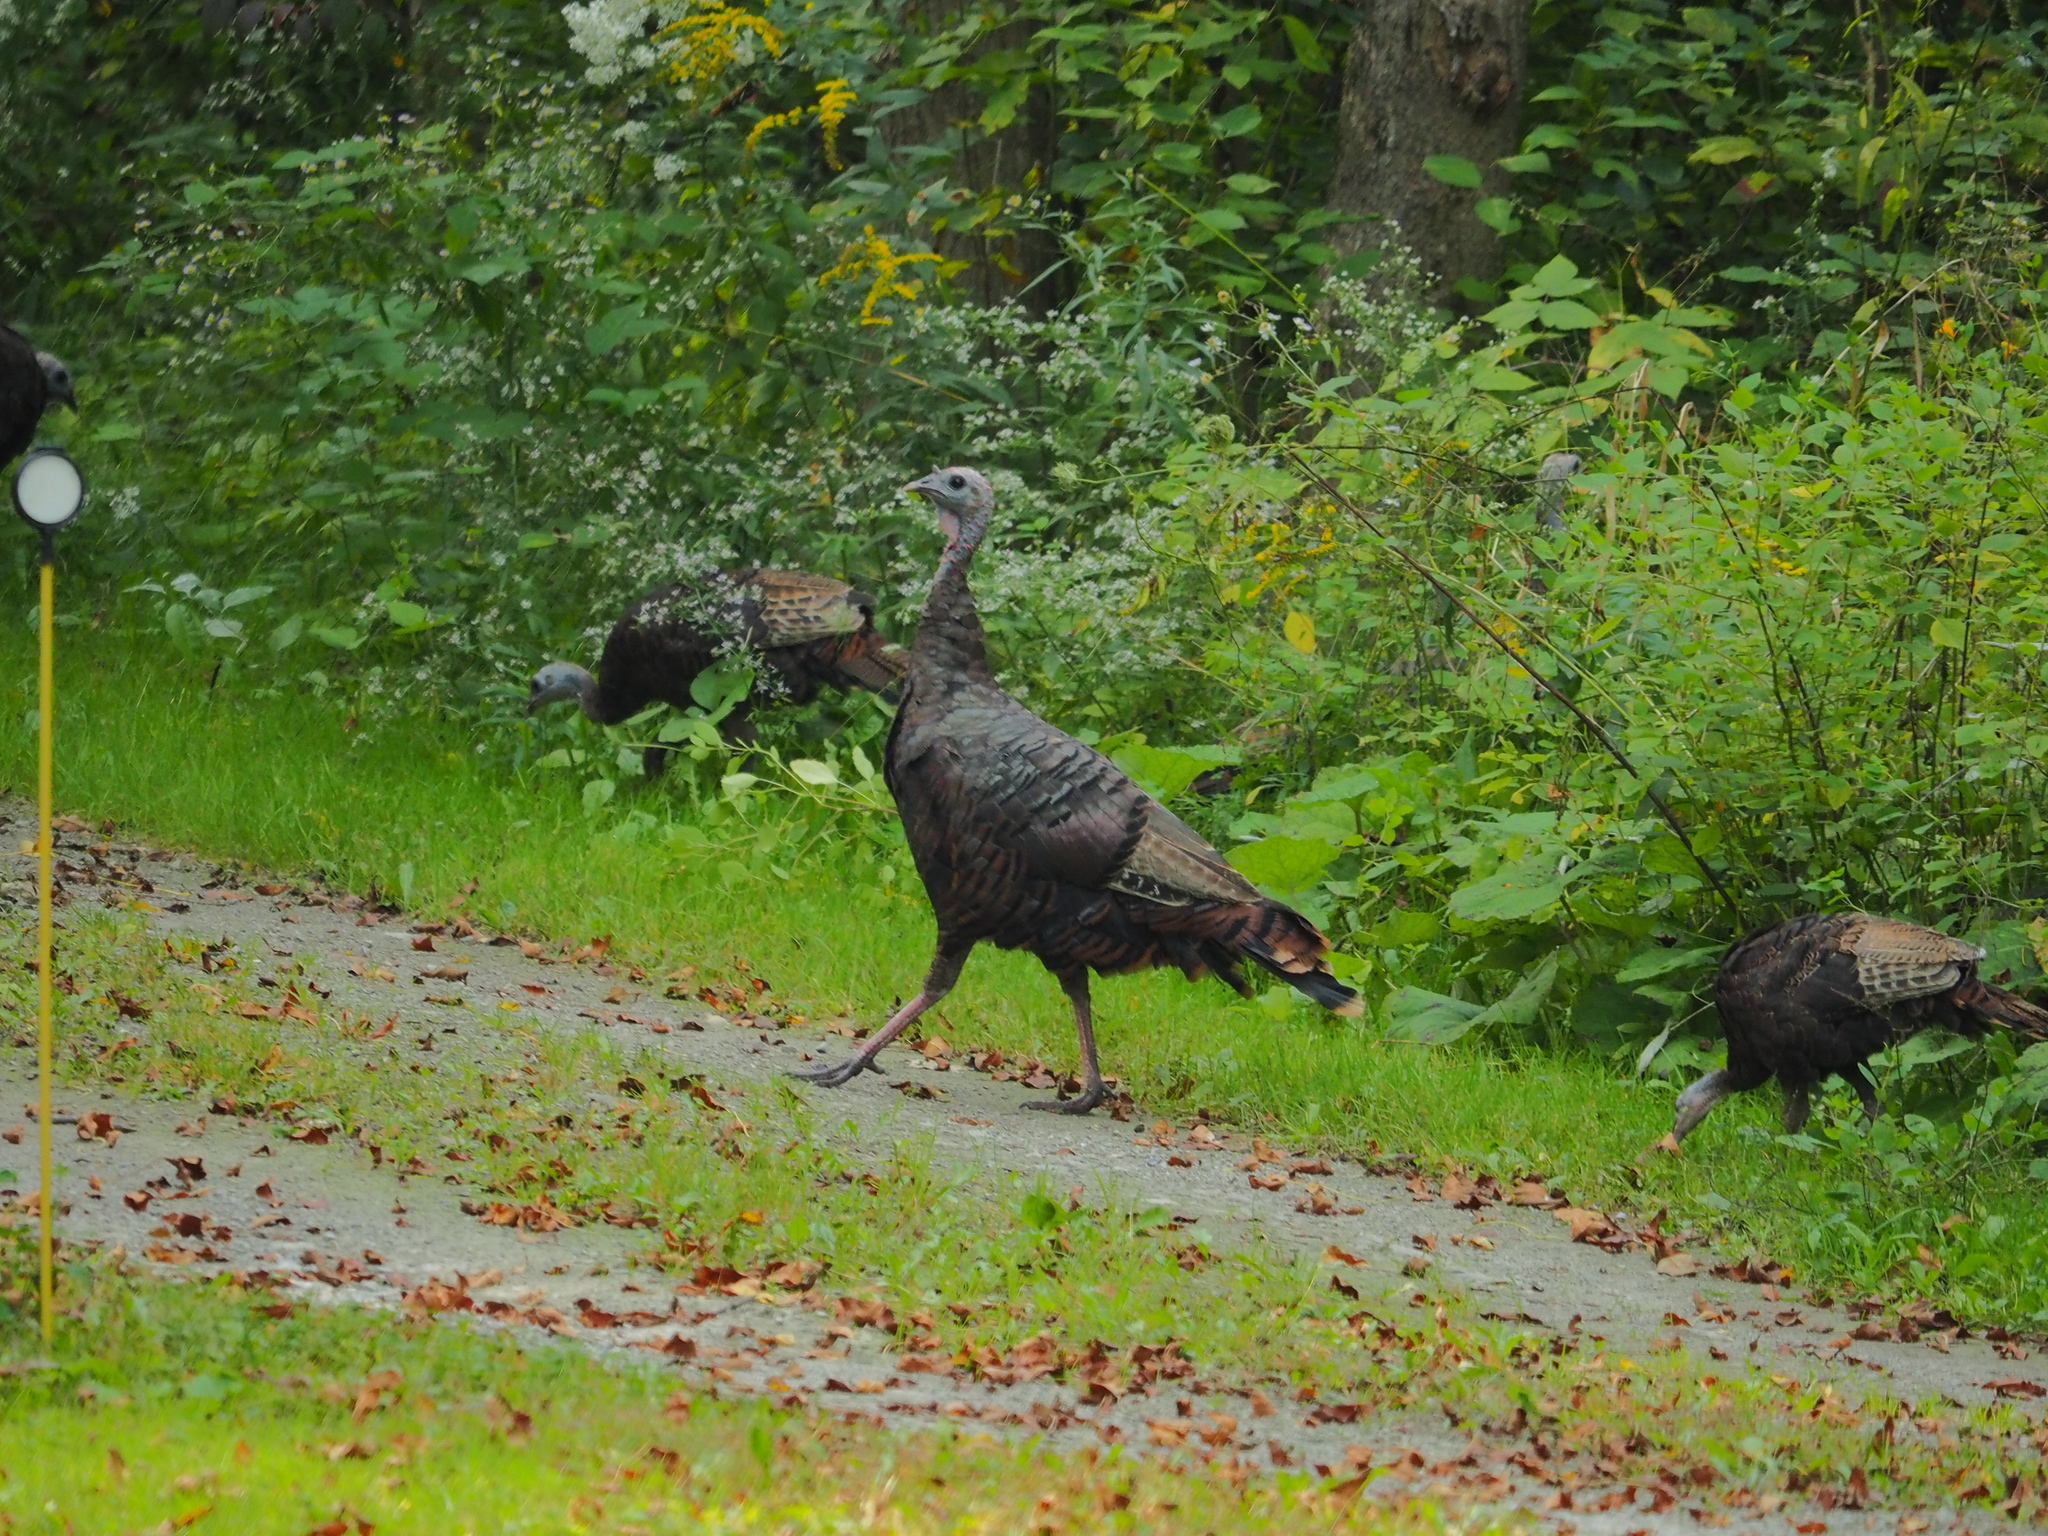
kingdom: Animalia
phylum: Chordata
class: Aves
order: Galliformes
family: Phasianidae
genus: Meleagris
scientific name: Meleagris gallopavo
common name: Wild turkey
